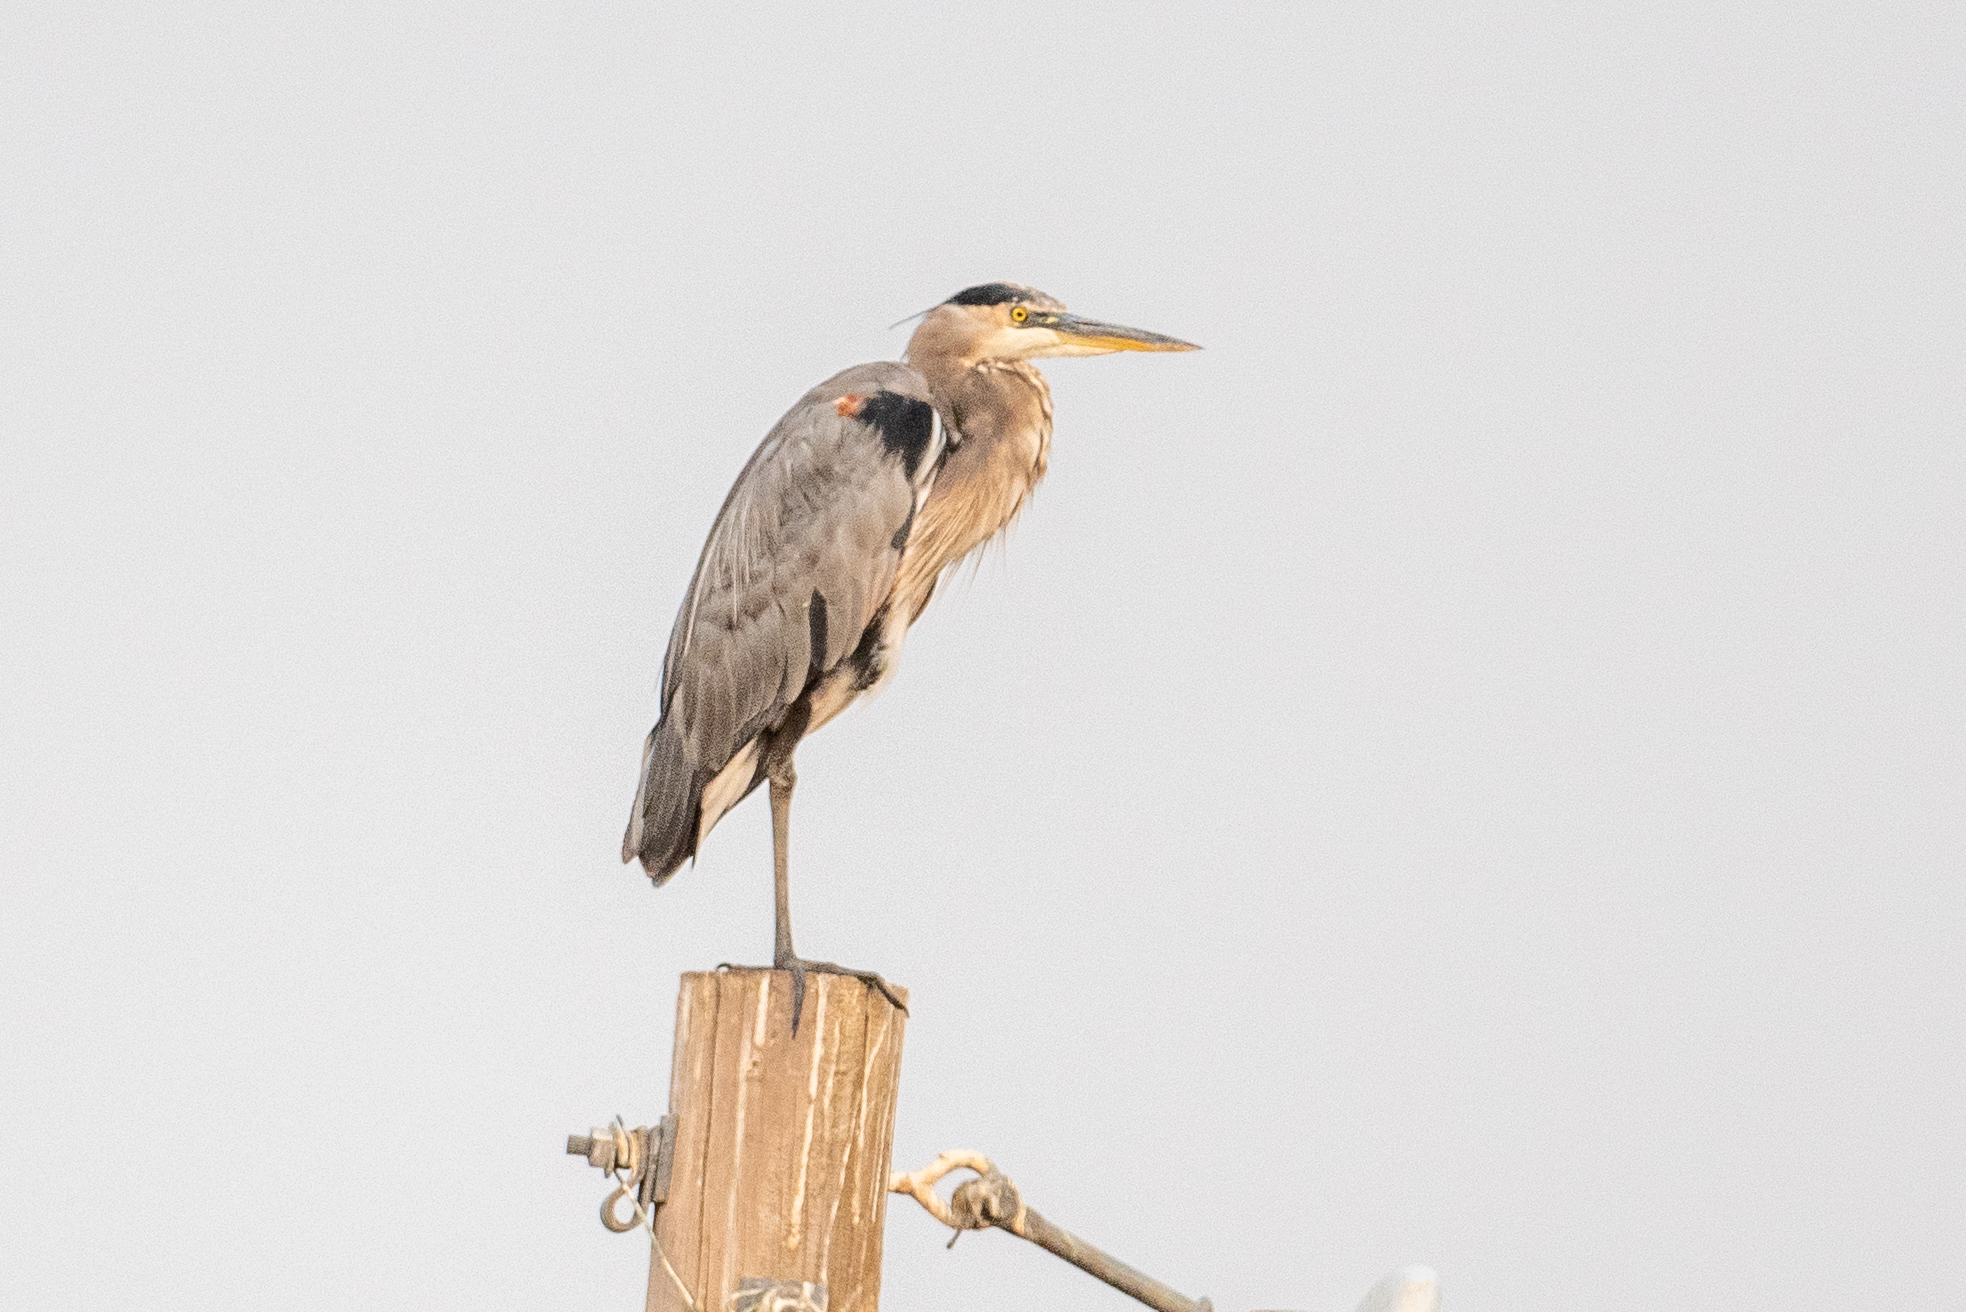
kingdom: Animalia
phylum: Chordata
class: Aves
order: Pelecaniformes
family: Ardeidae
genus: Ardea
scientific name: Ardea herodias
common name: Great blue heron
